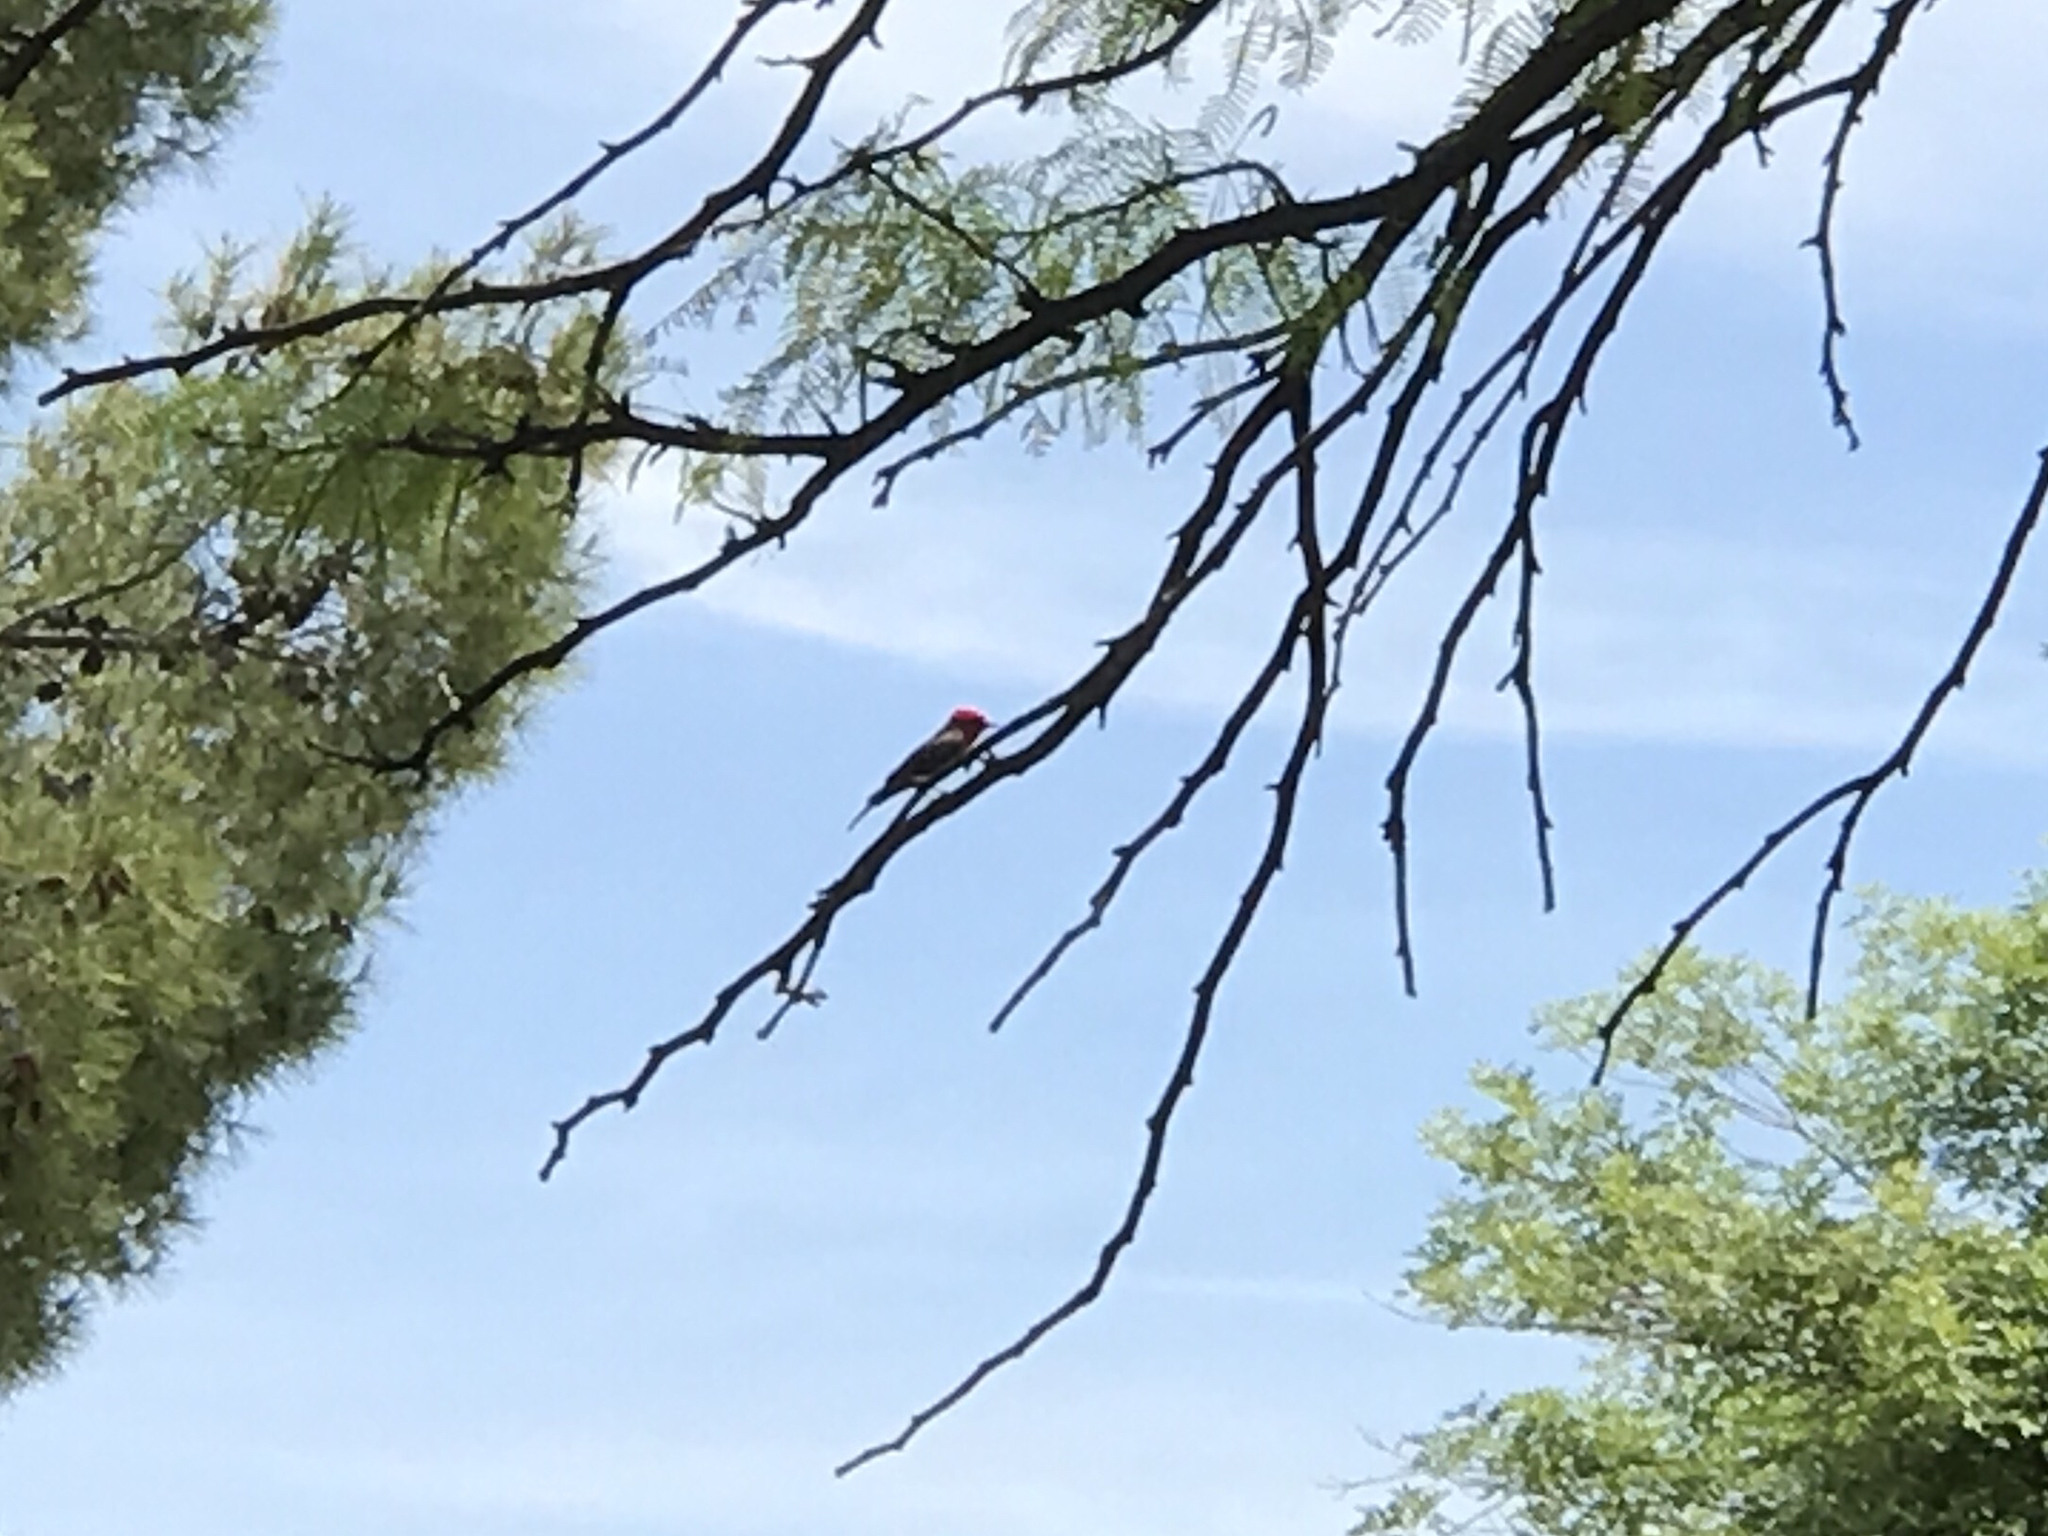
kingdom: Animalia
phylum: Chordata
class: Aves
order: Passeriformes
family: Tyrannidae
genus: Pyrocephalus
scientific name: Pyrocephalus rubinus
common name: Vermilion flycatcher
